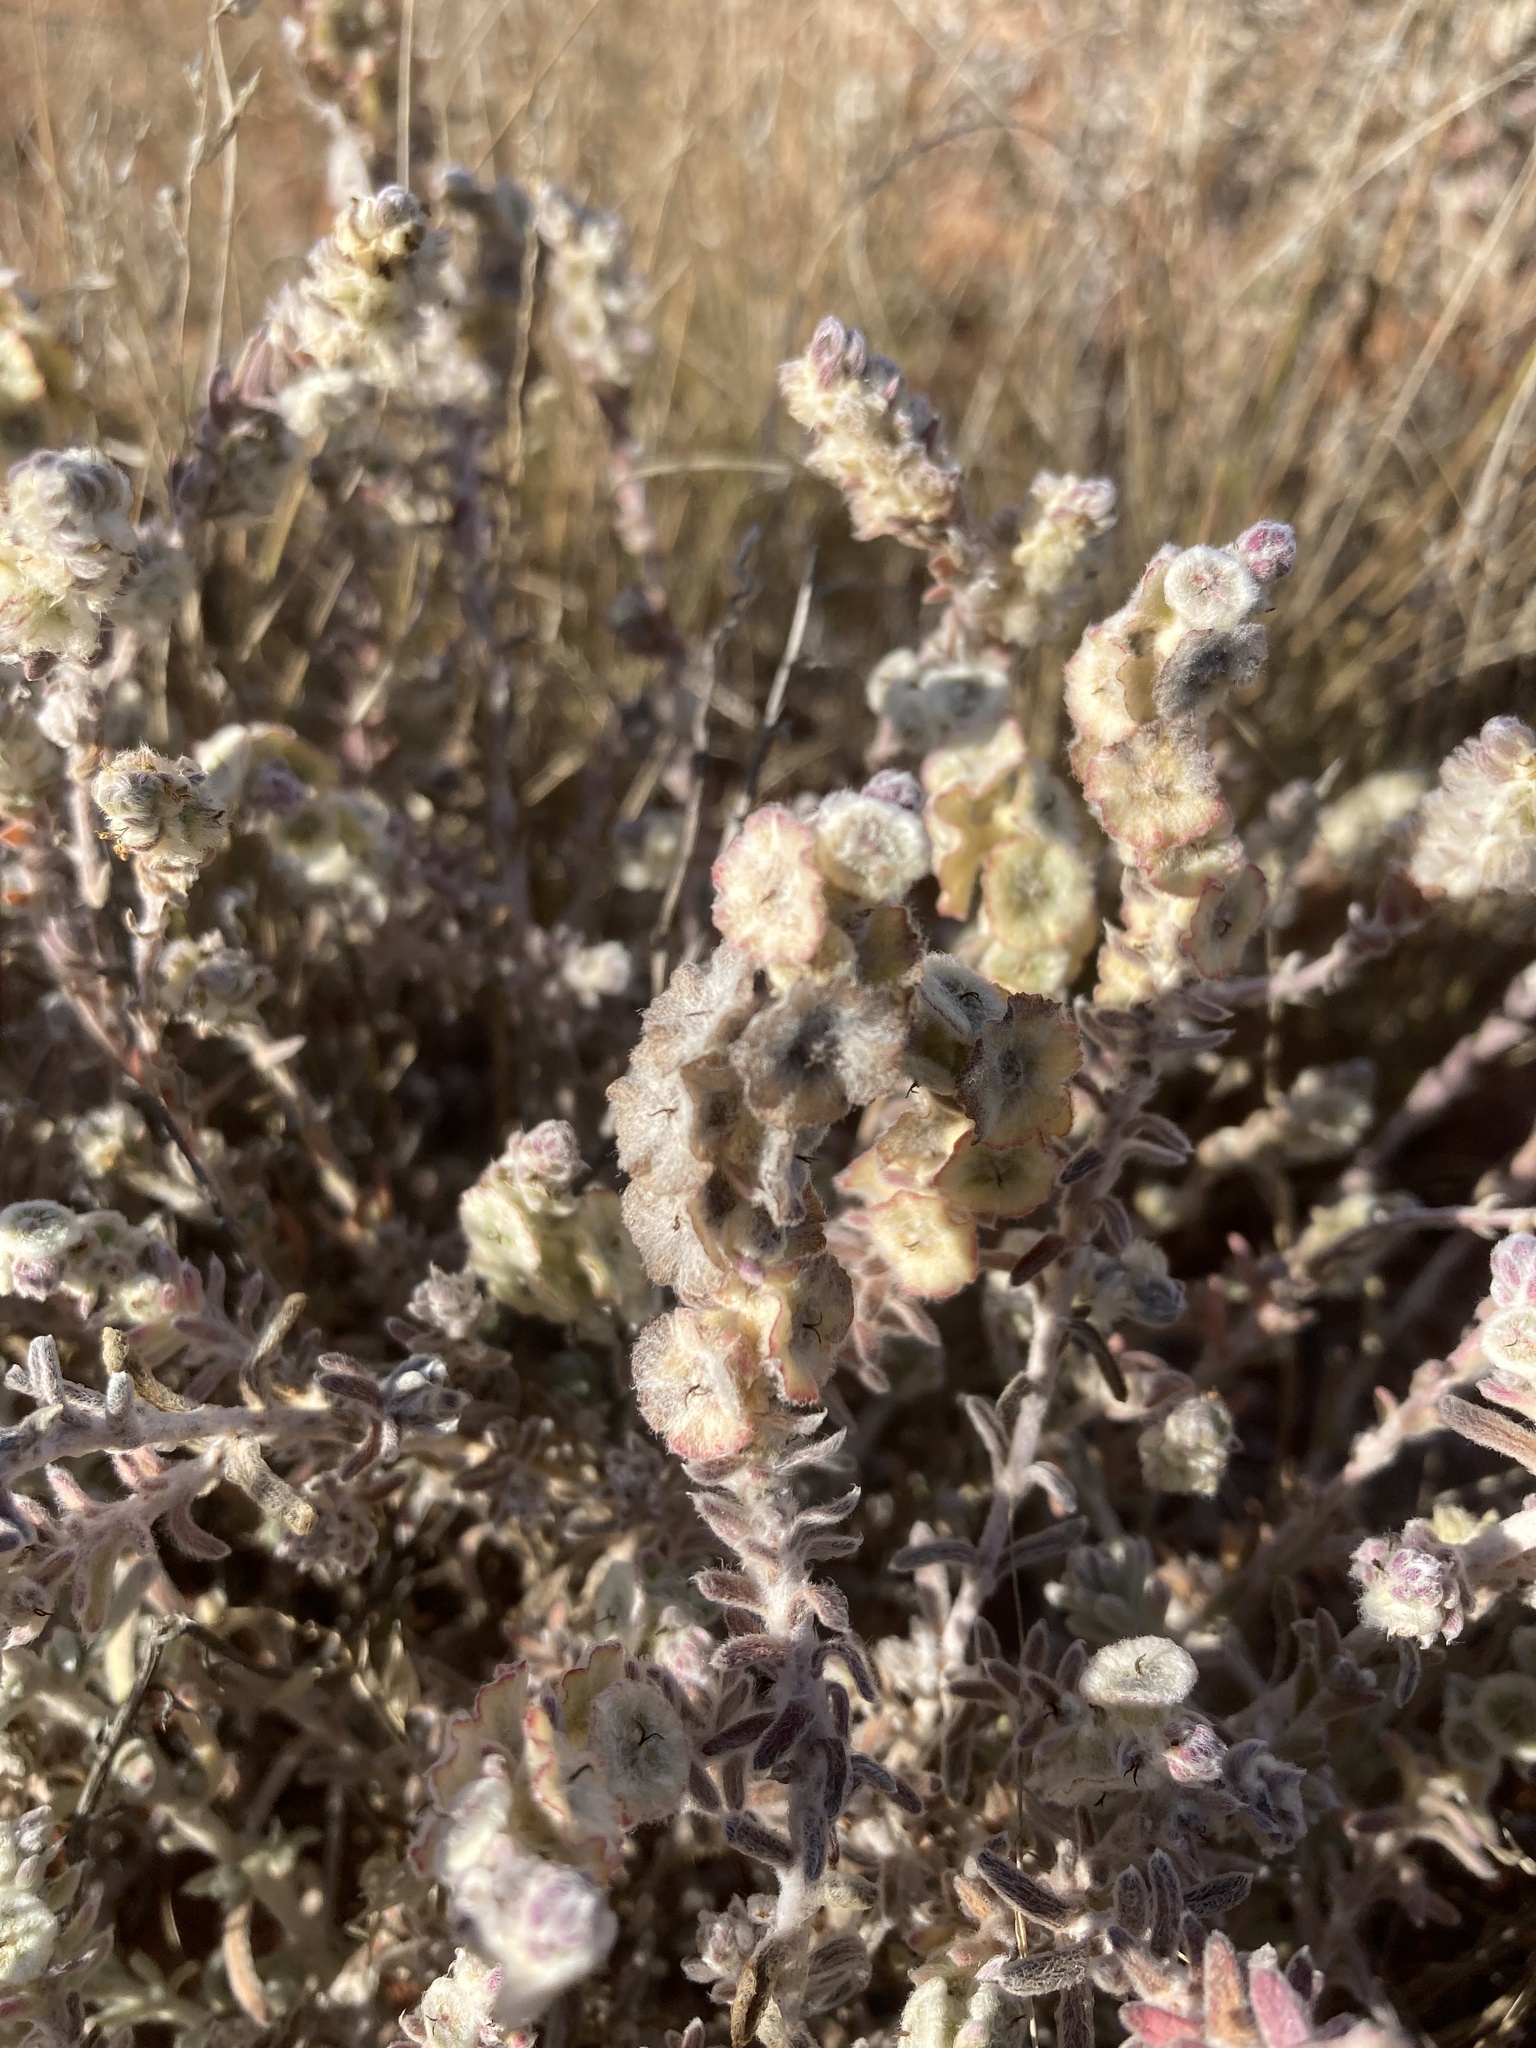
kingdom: Plantae
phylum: Tracheophyta
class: Magnoliopsida
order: Caryophyllales
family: Amaranthaceae
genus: Maireana
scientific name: Maireana trichoptera
